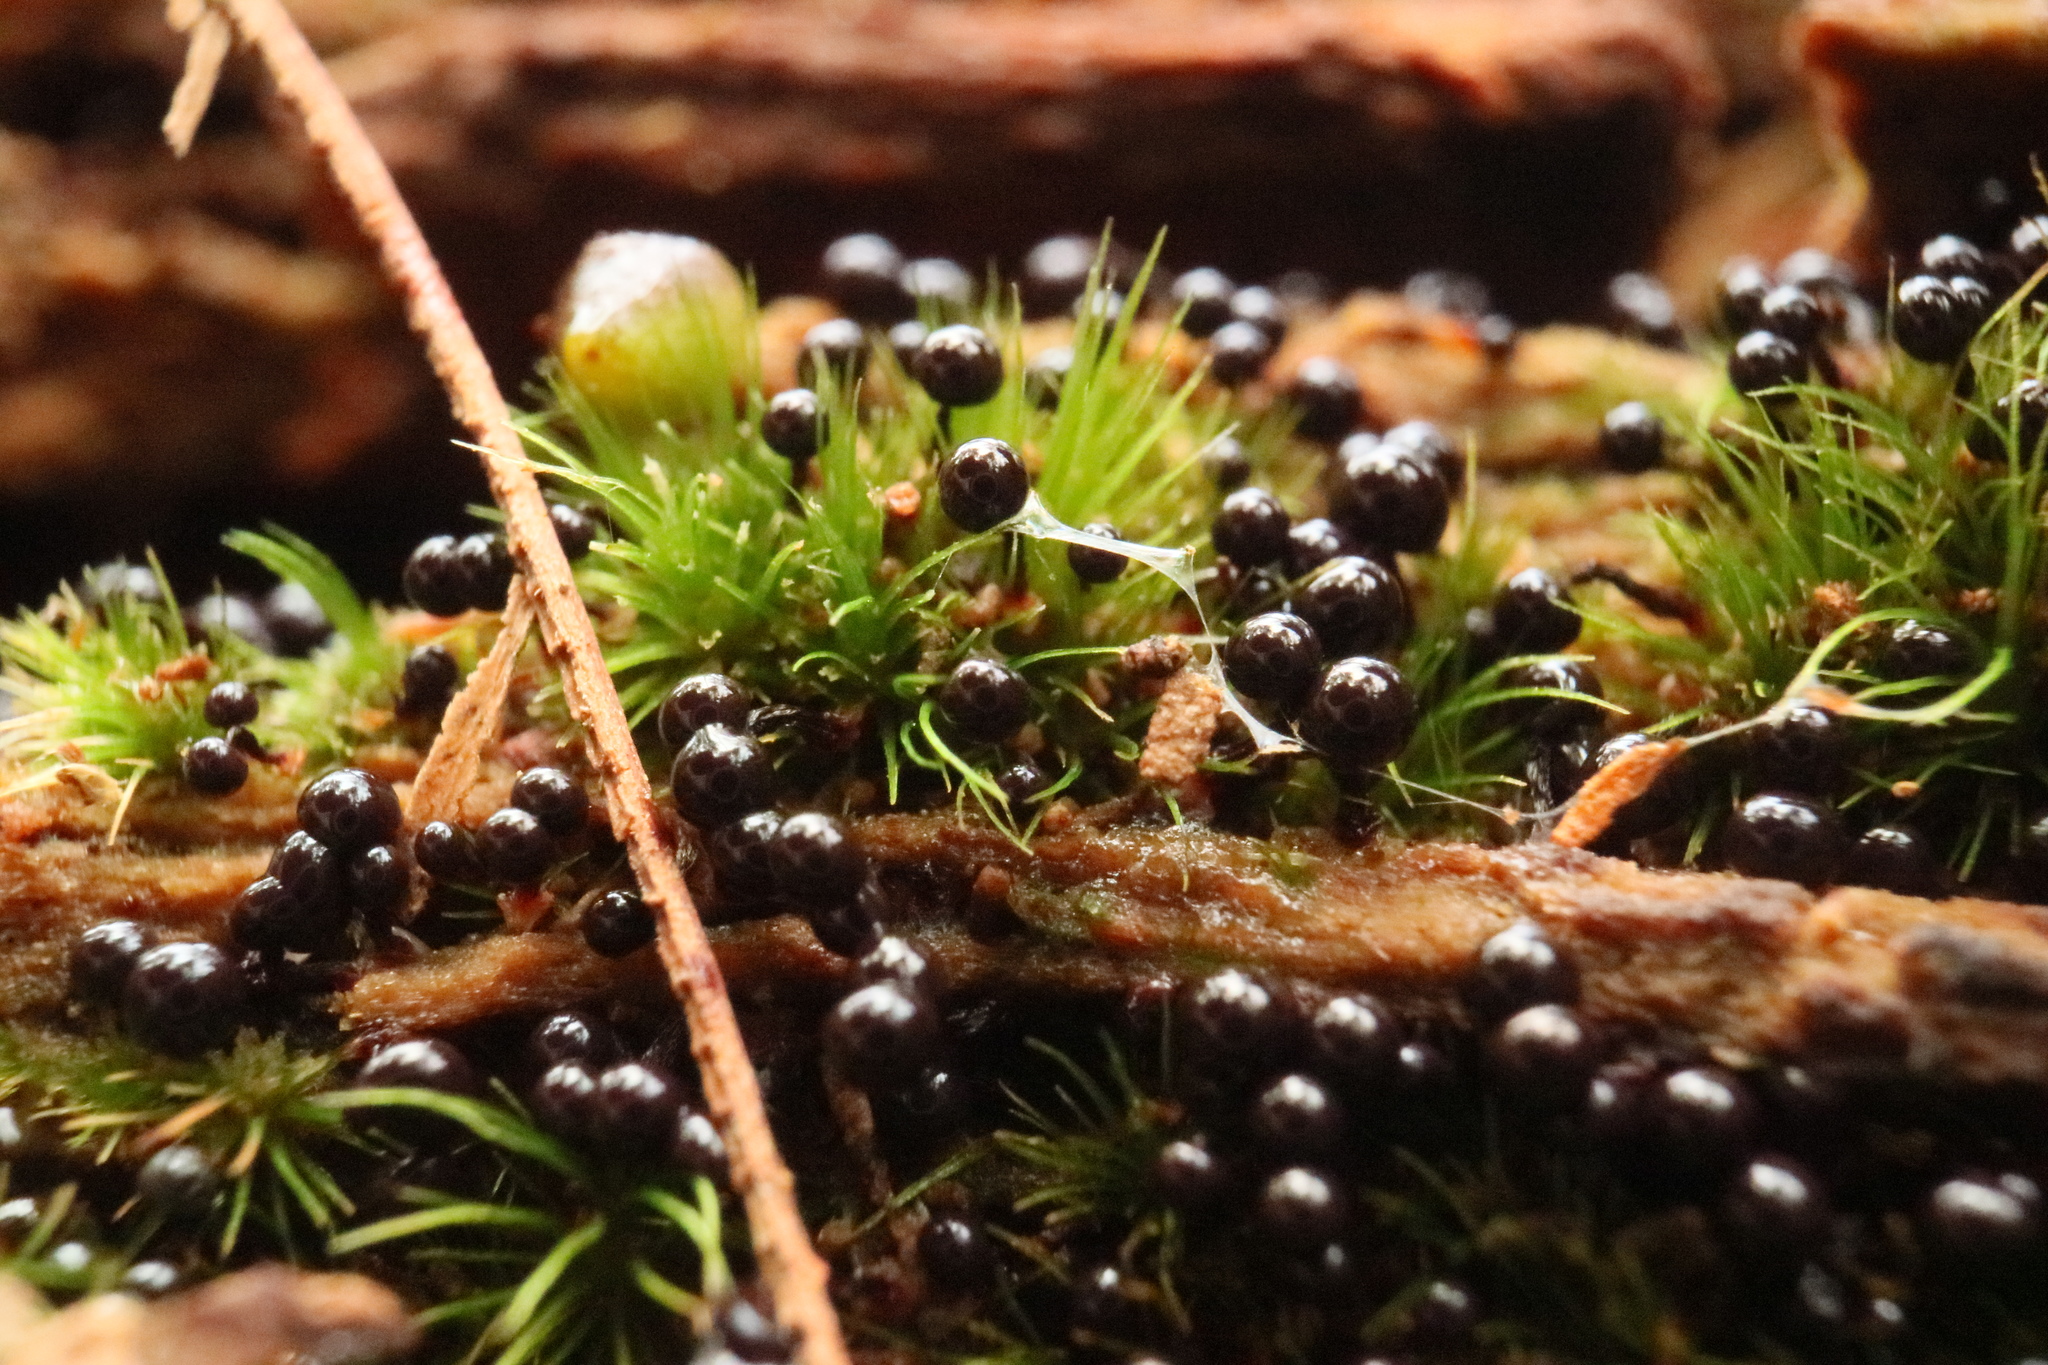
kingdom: Protozoa
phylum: Mycetozoa
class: Myxomycetes
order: Cribrariales
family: Cribrariaceae
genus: Cribraria
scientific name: Cribraria cancellata
